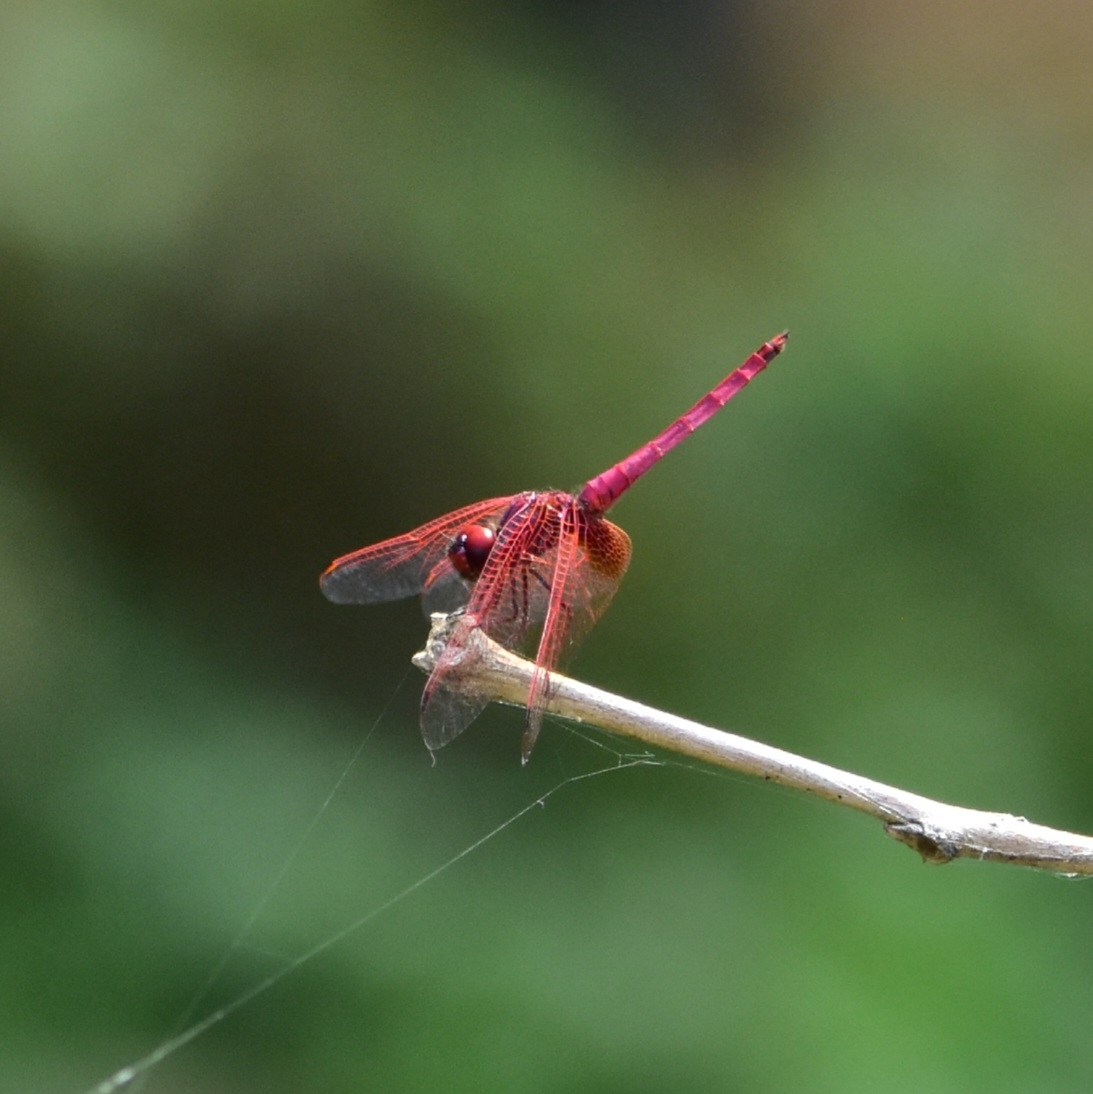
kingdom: Animalia
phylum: Arthropoda
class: Insecta
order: Odonata
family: Libellulidae
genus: Trithemis
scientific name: Trithemis aurora
